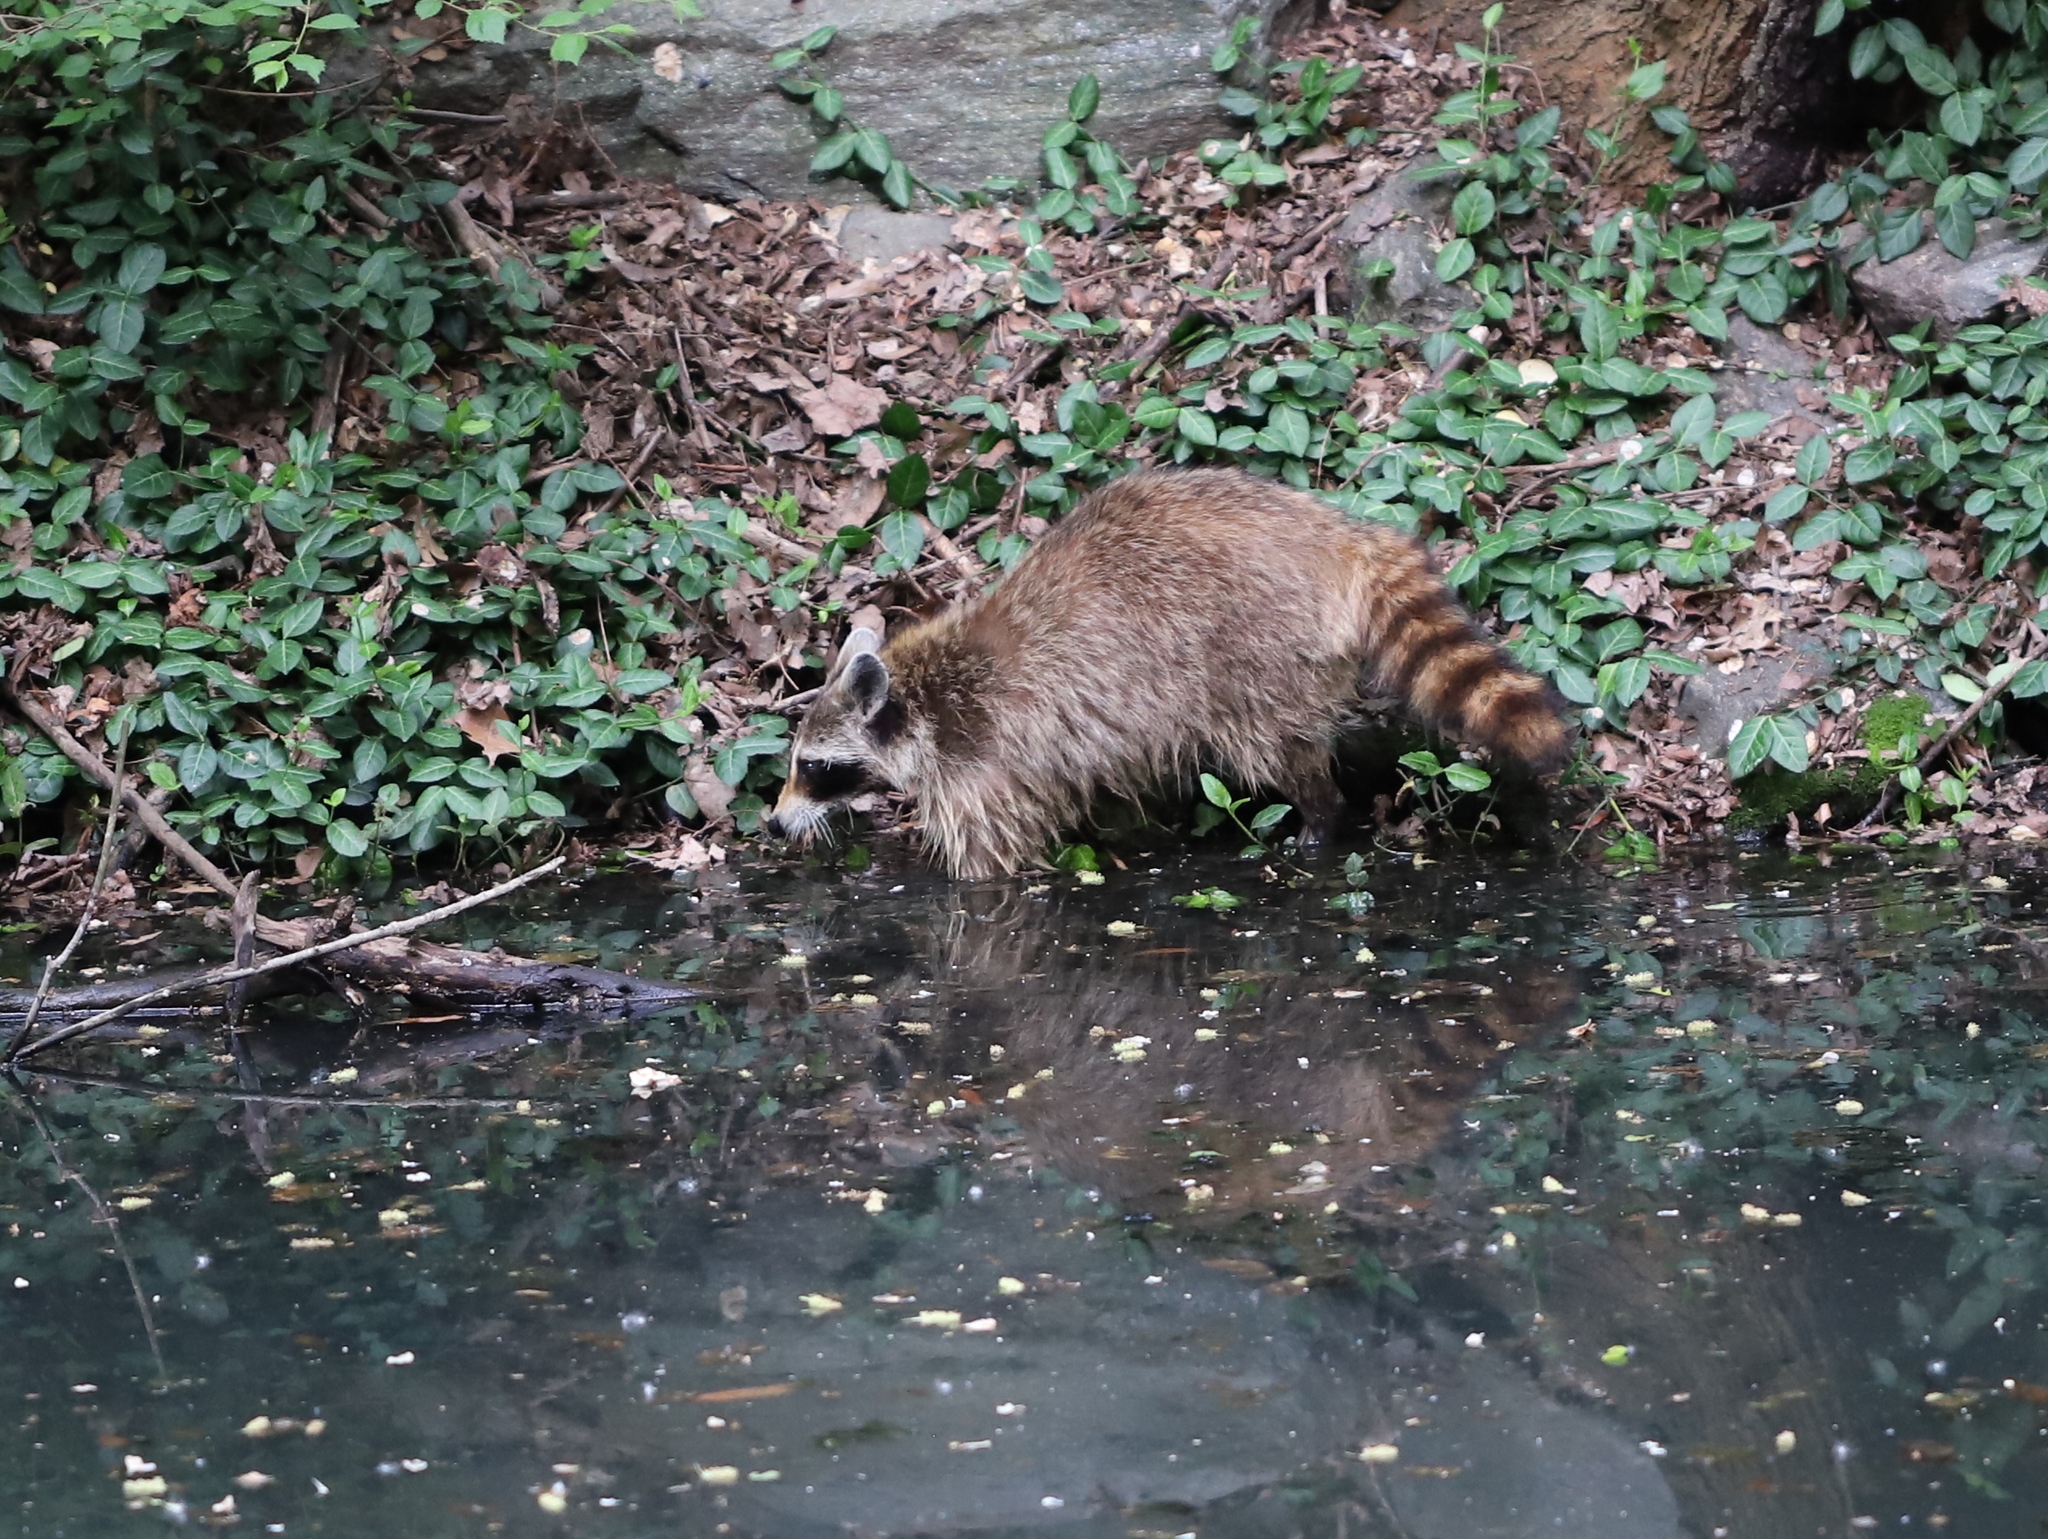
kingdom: Animalia
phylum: Chordata
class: Mammalia
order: Carnivora
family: Procyonidae
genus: Procyon
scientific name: Procyon lotor
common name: Raccoon
